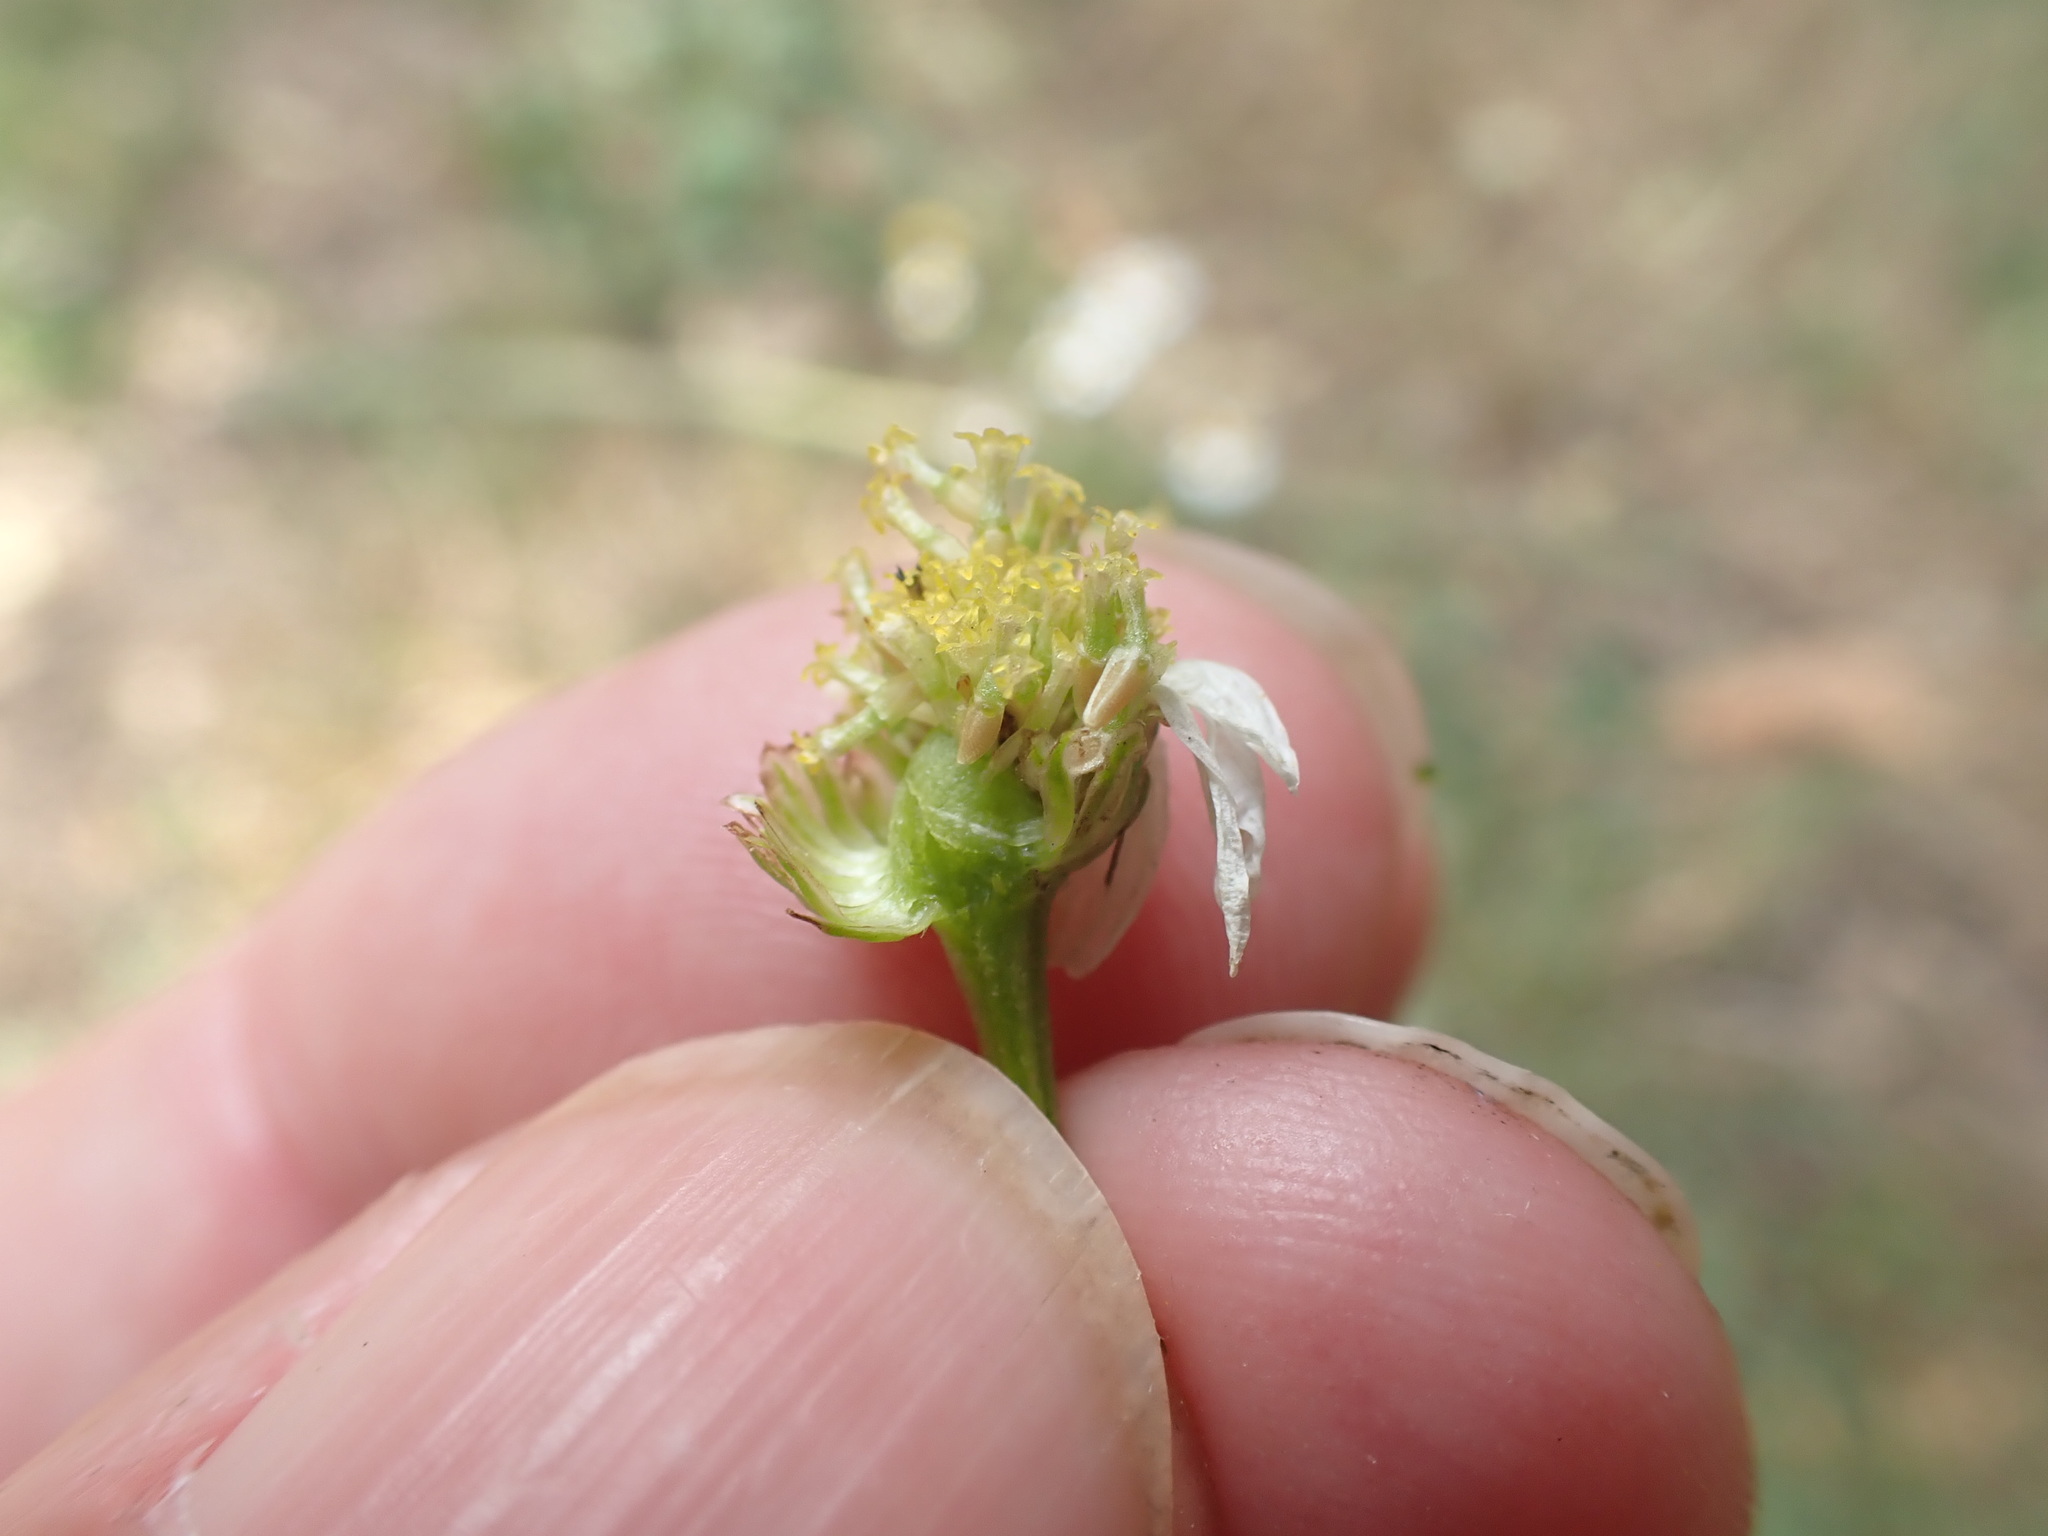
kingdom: Plantae
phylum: Tracheophyta
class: Magnoliopsida
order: Asterales
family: Asteraceae
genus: Tripleurospermum
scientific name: Tripleurospermum inodorum
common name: Scentless mayweed
